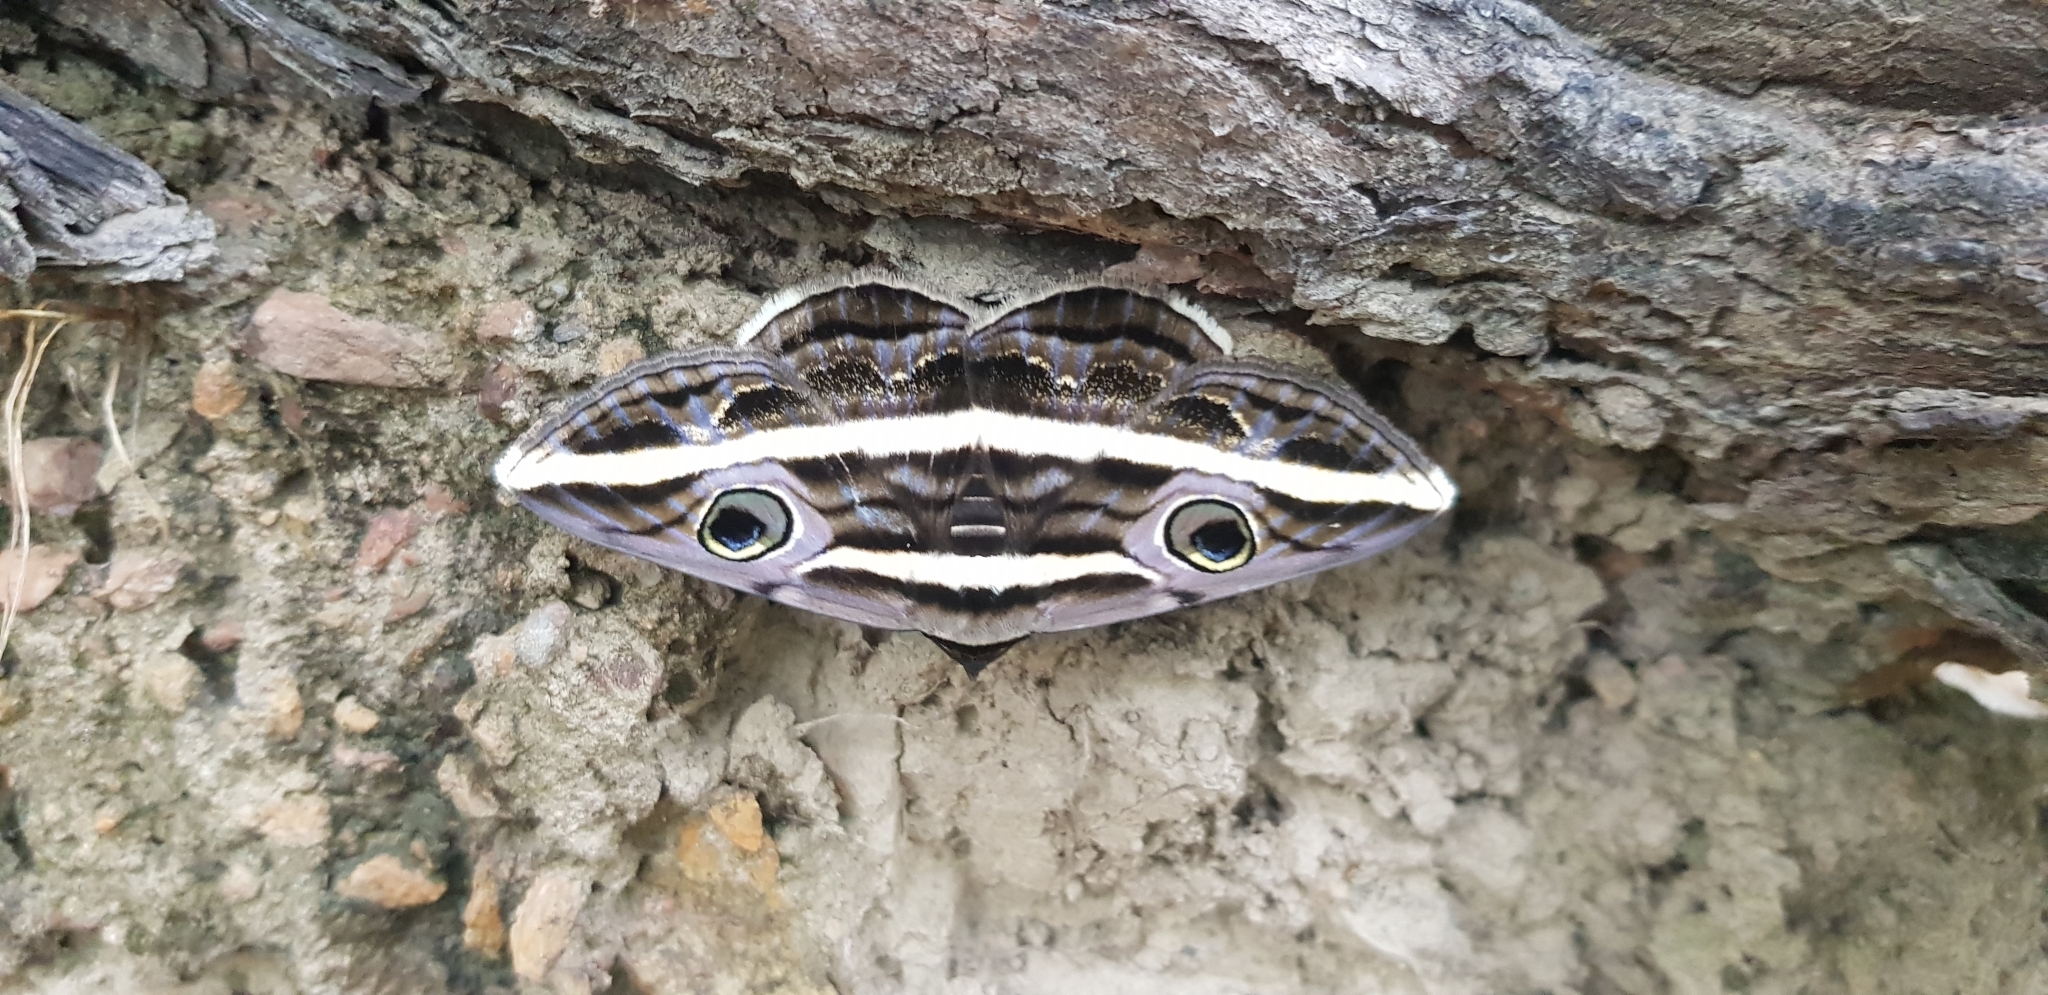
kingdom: Animalia
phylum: Arthropoda
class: Insecta
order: Lepidoptera
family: Erebidae
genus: Donuca
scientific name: Donuca rubropicta
